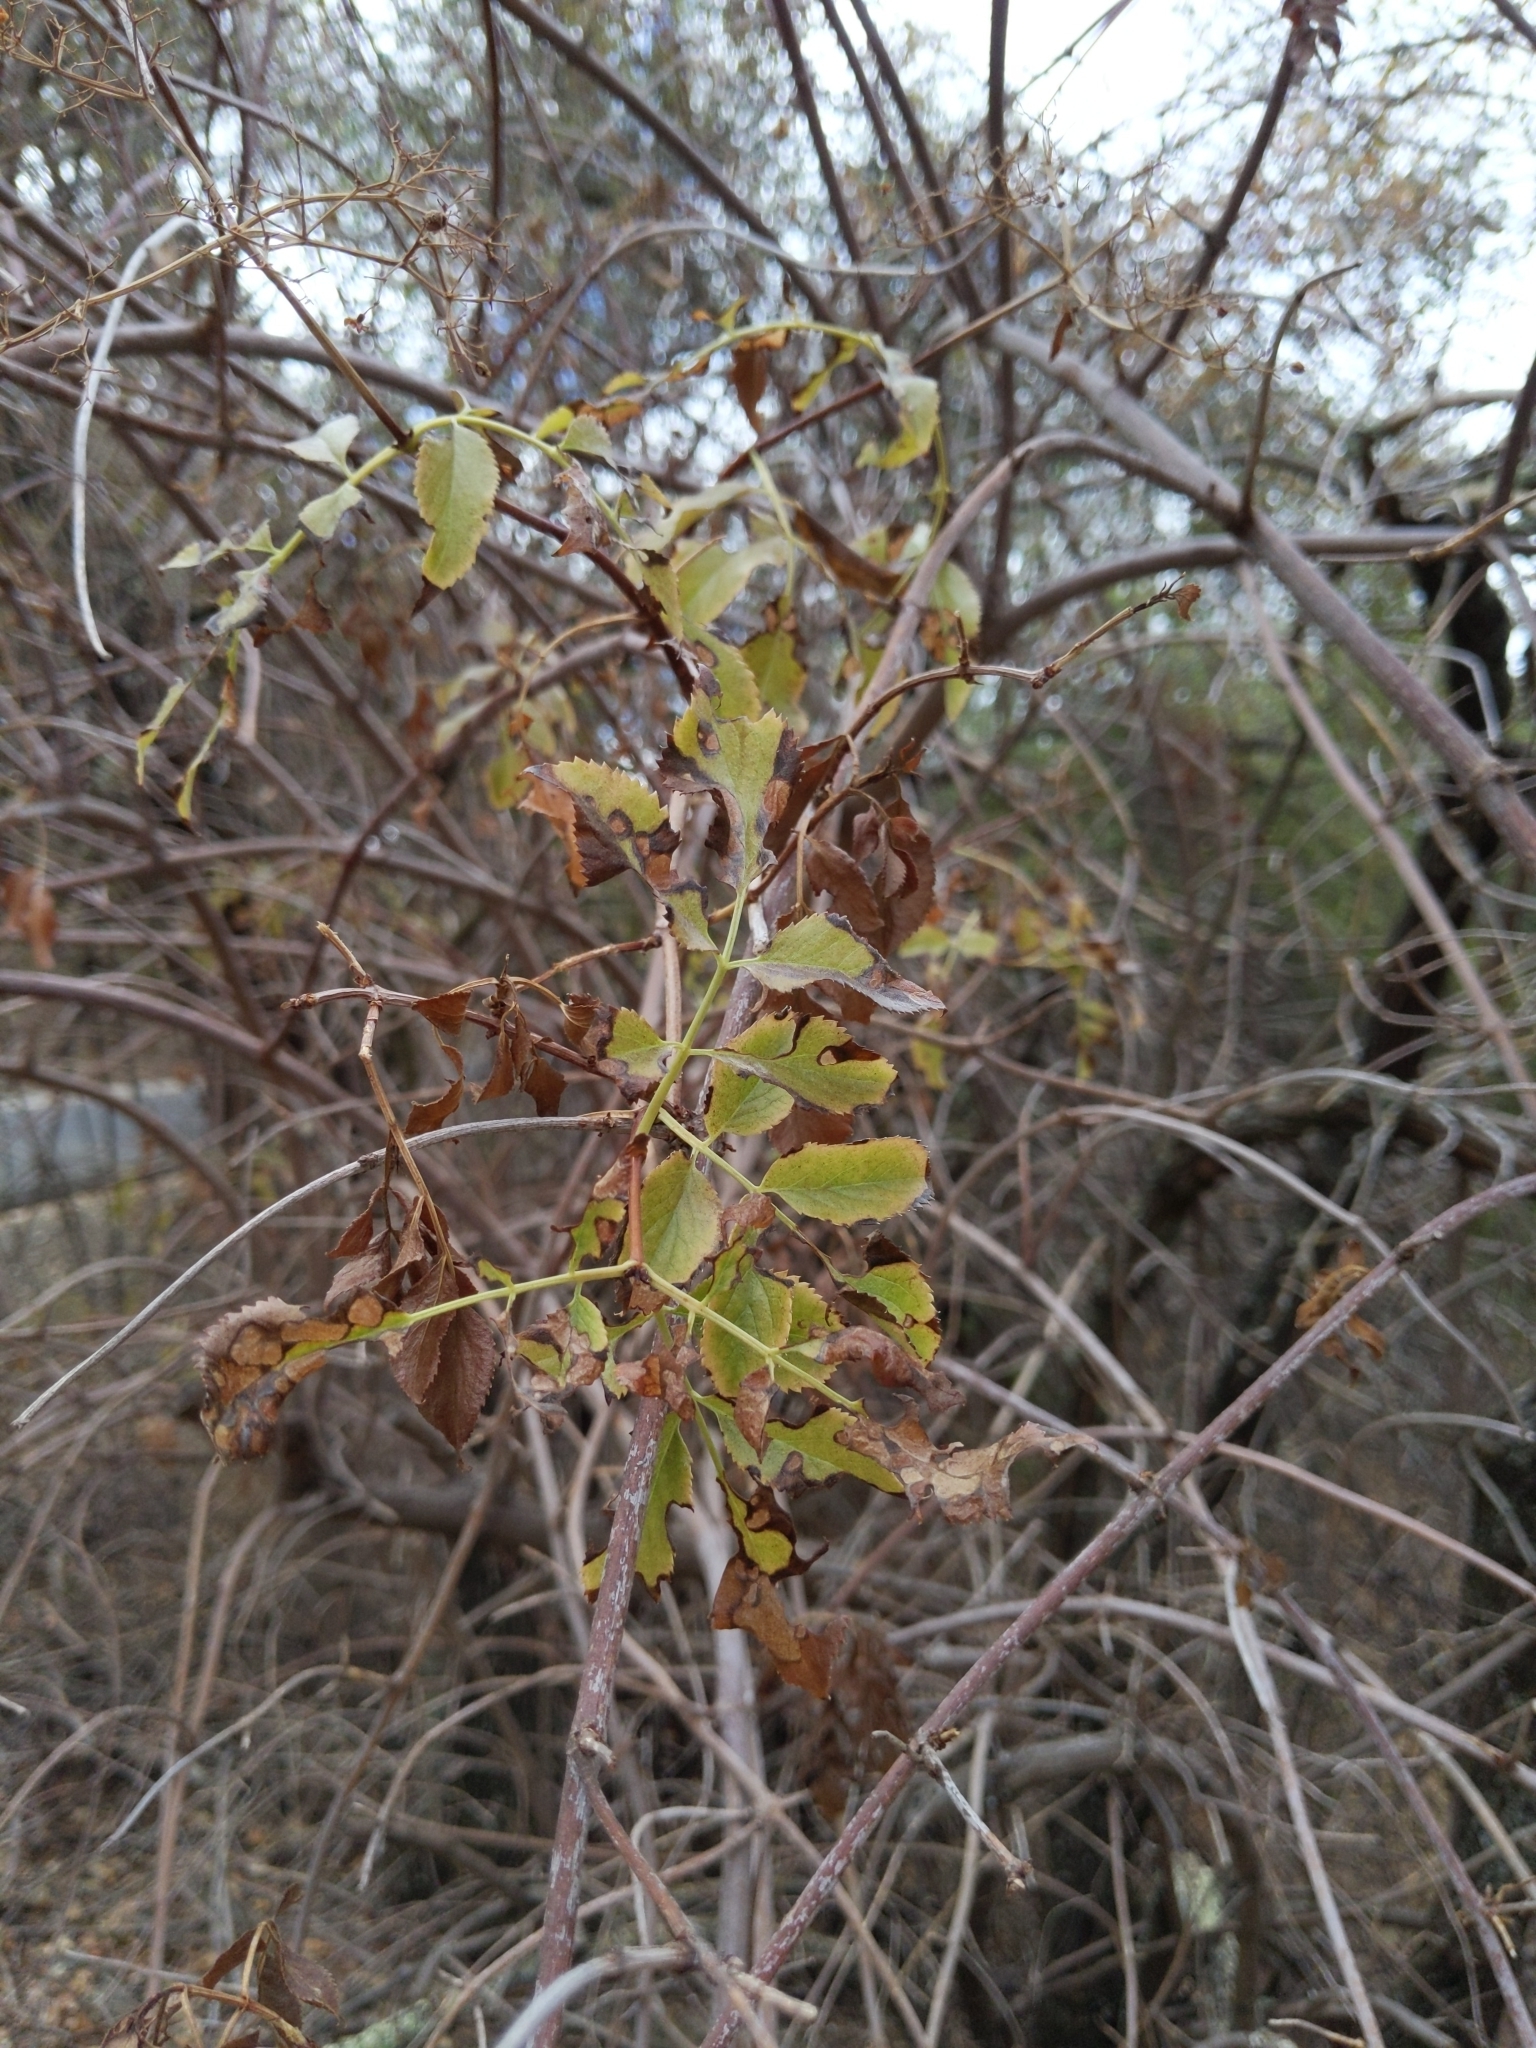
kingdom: Plantae
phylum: Tracheophyta
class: Magnoliopsida
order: Dipsacales
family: Viburnaceae
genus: Sambucus
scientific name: Sambucus cerulea
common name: Blue elder
